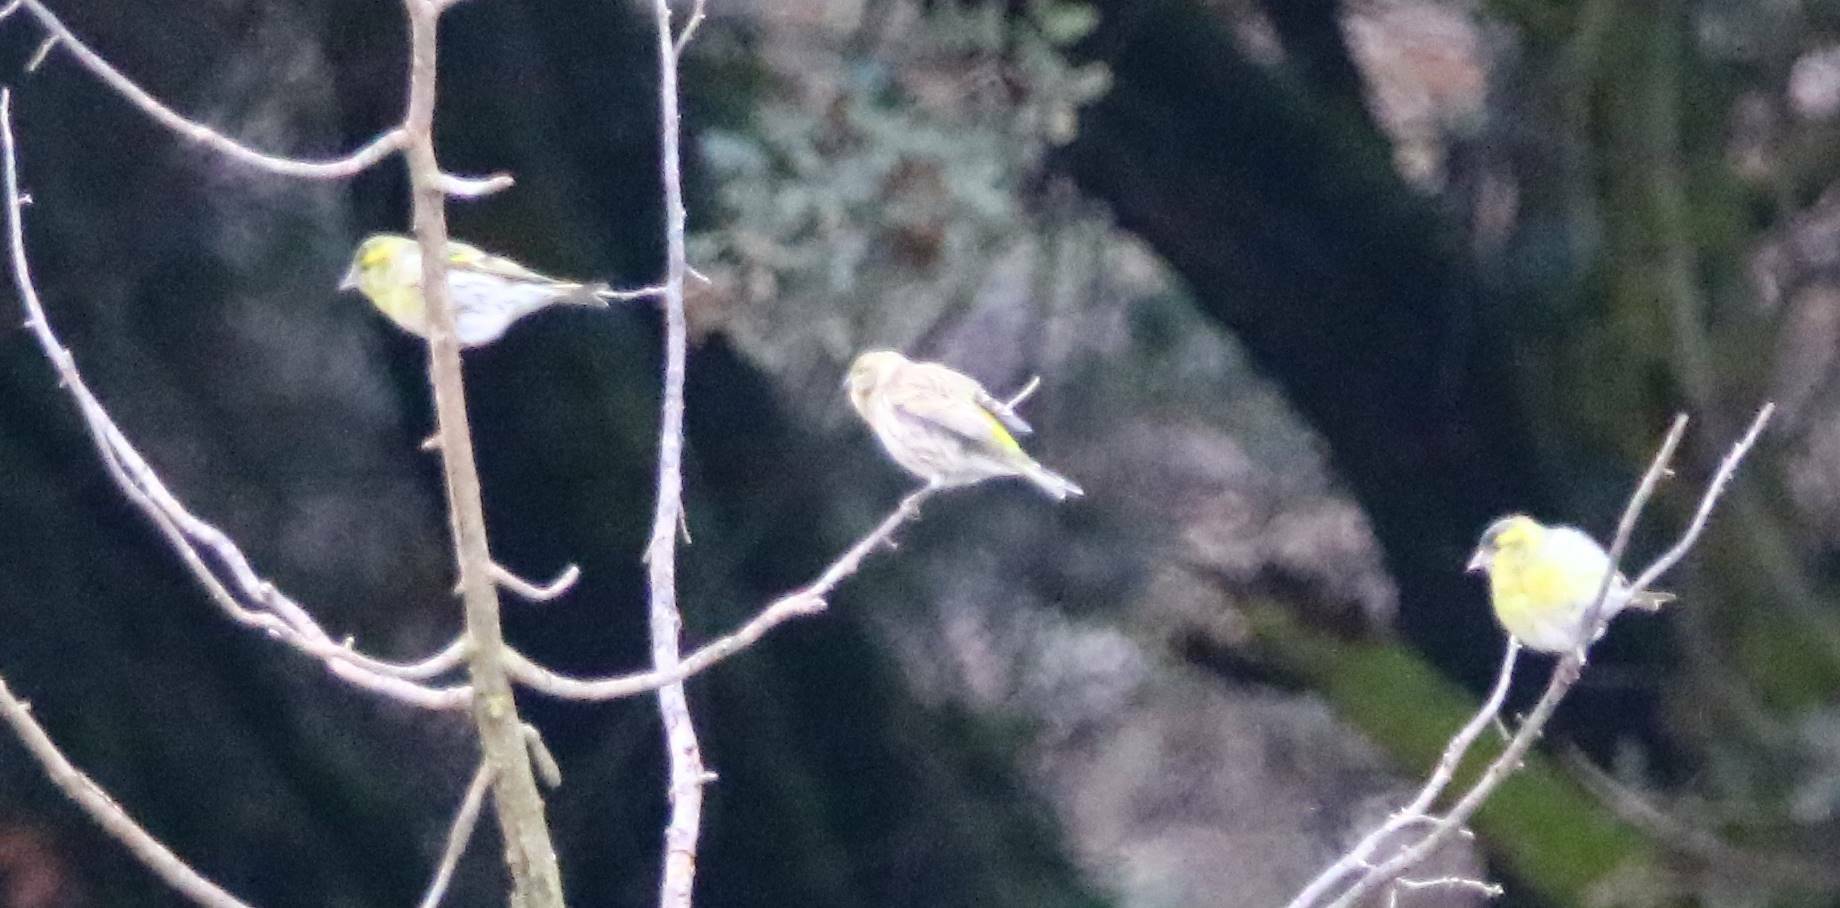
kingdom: Animalia
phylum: Chordata
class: Aves
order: Passeriformes
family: Fringillidae
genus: Spinus
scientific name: Spinus spinus
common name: Eurasian siskin
